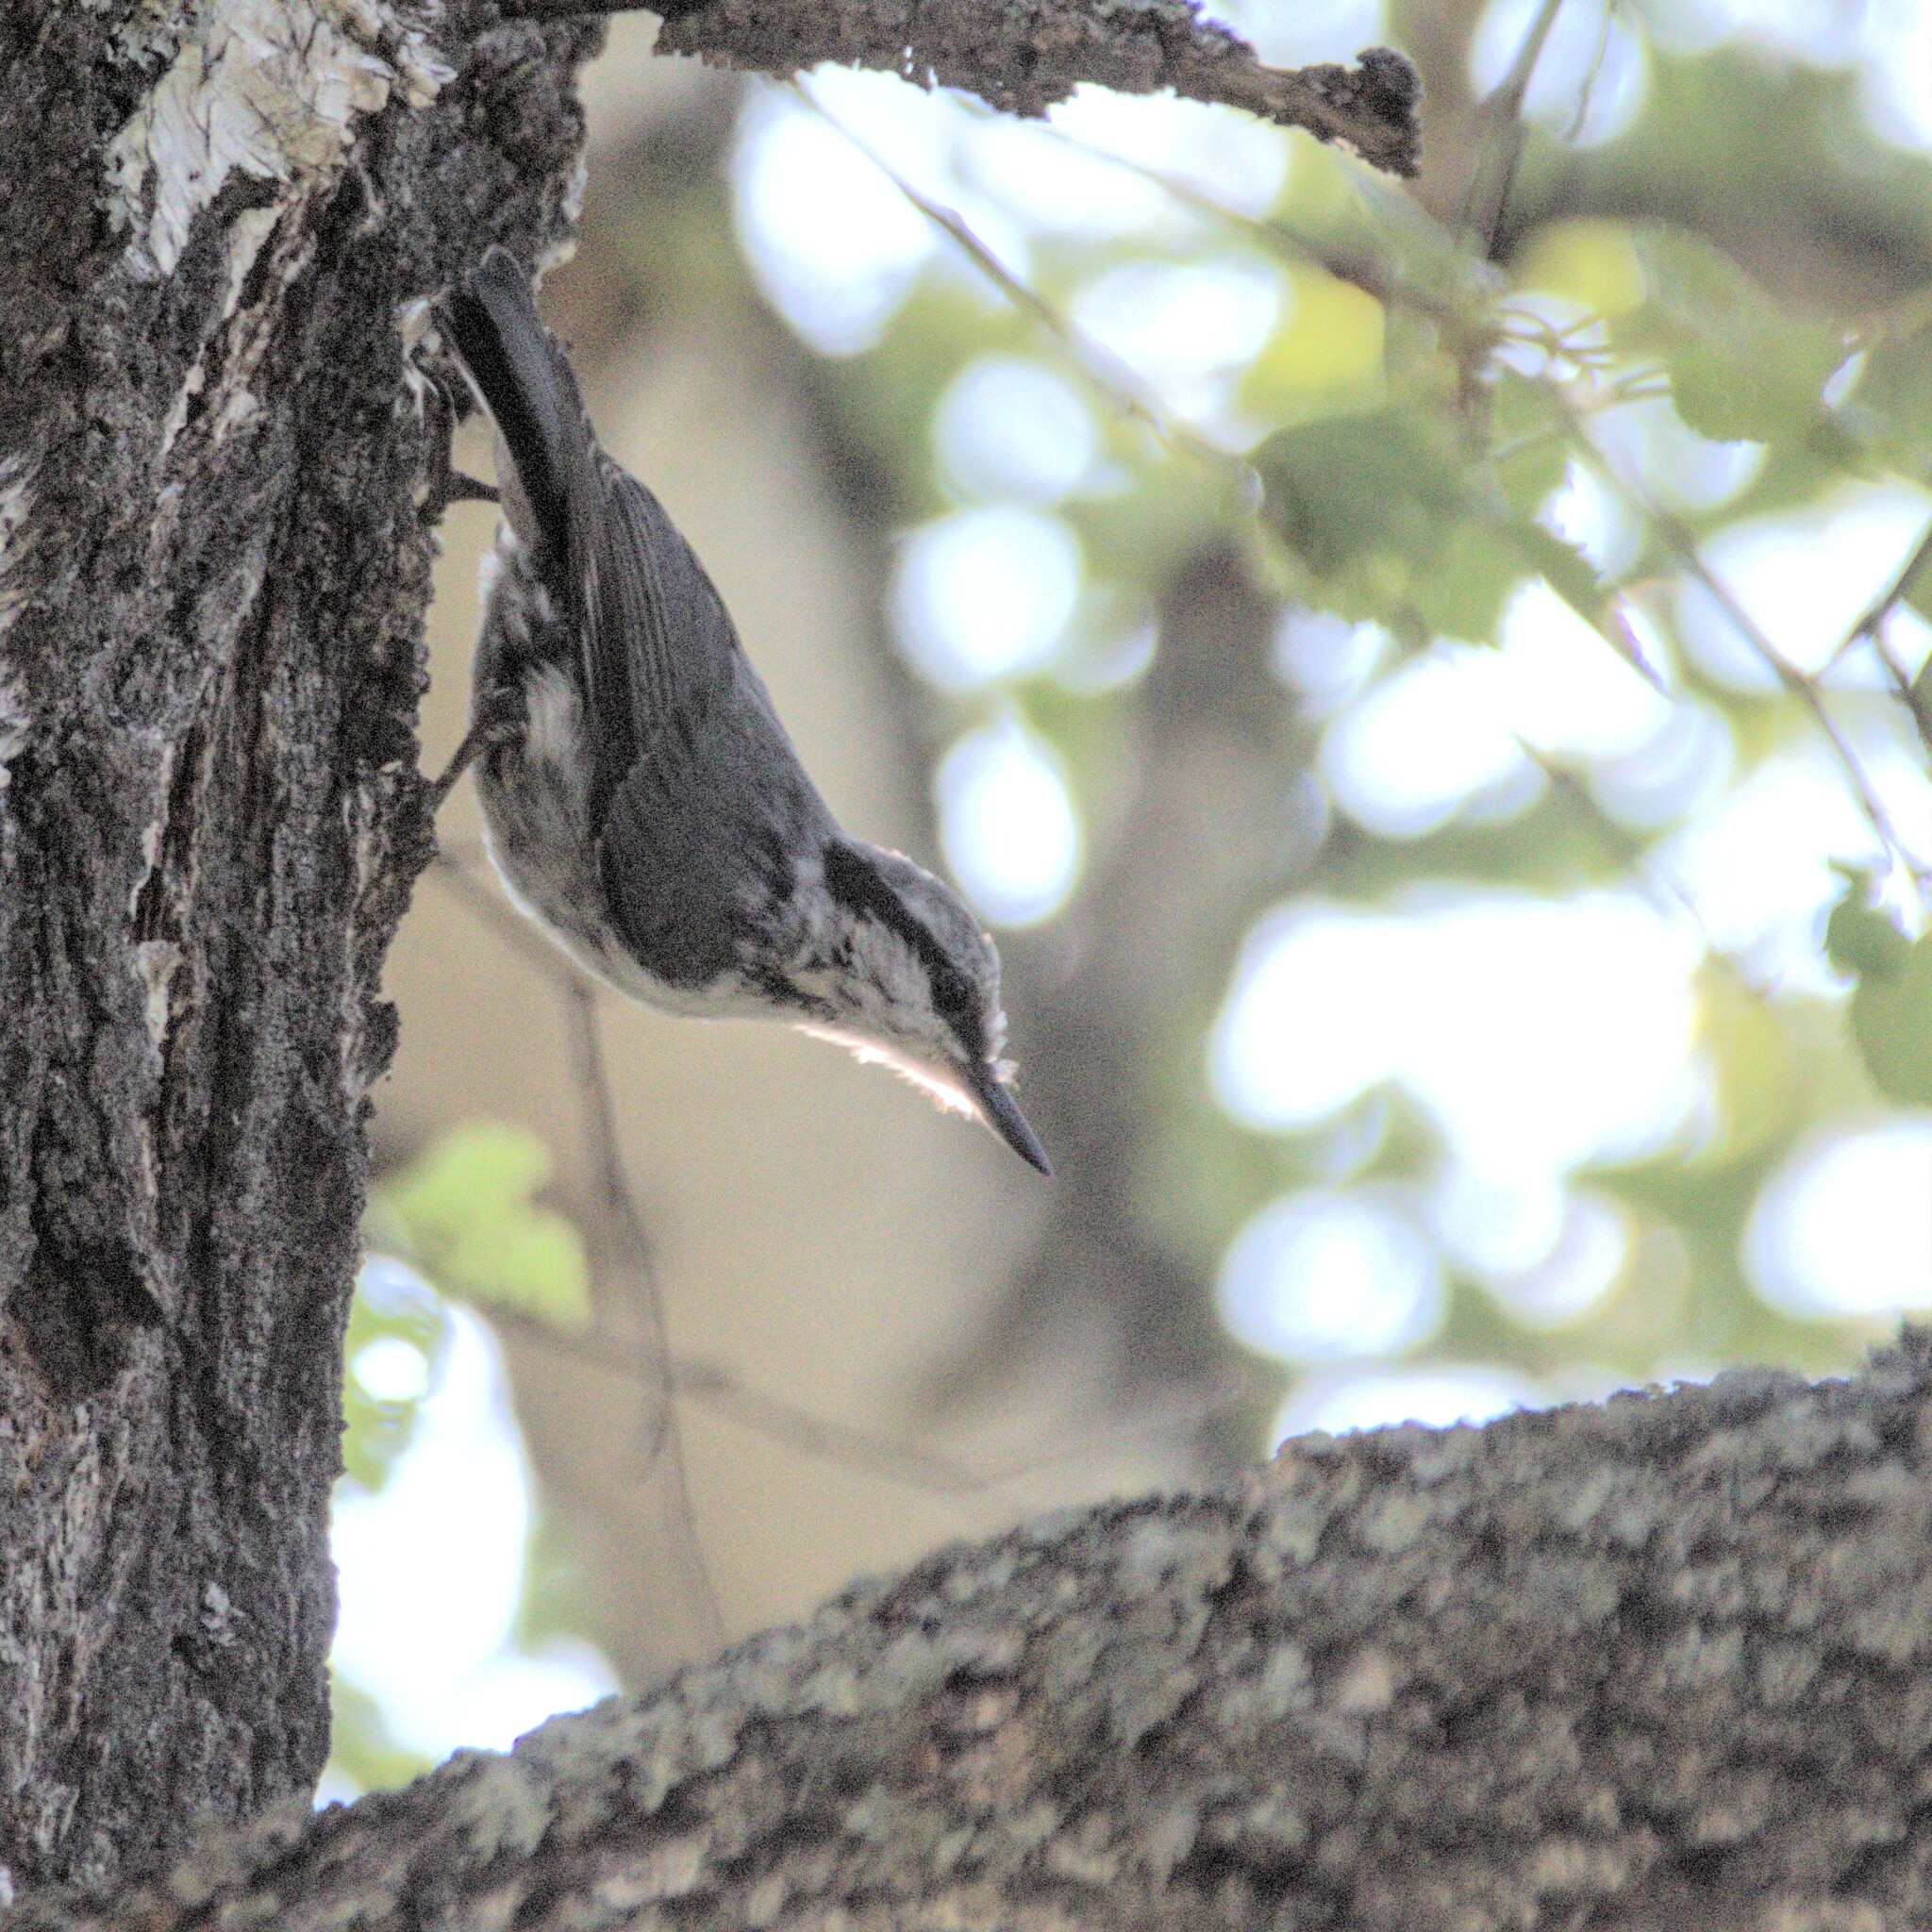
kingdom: Animalia
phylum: Chordata
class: Aves
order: Passeriformes
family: Sittidae
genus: Sitta
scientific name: Sitta europaea
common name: Eurasian nuthatch
